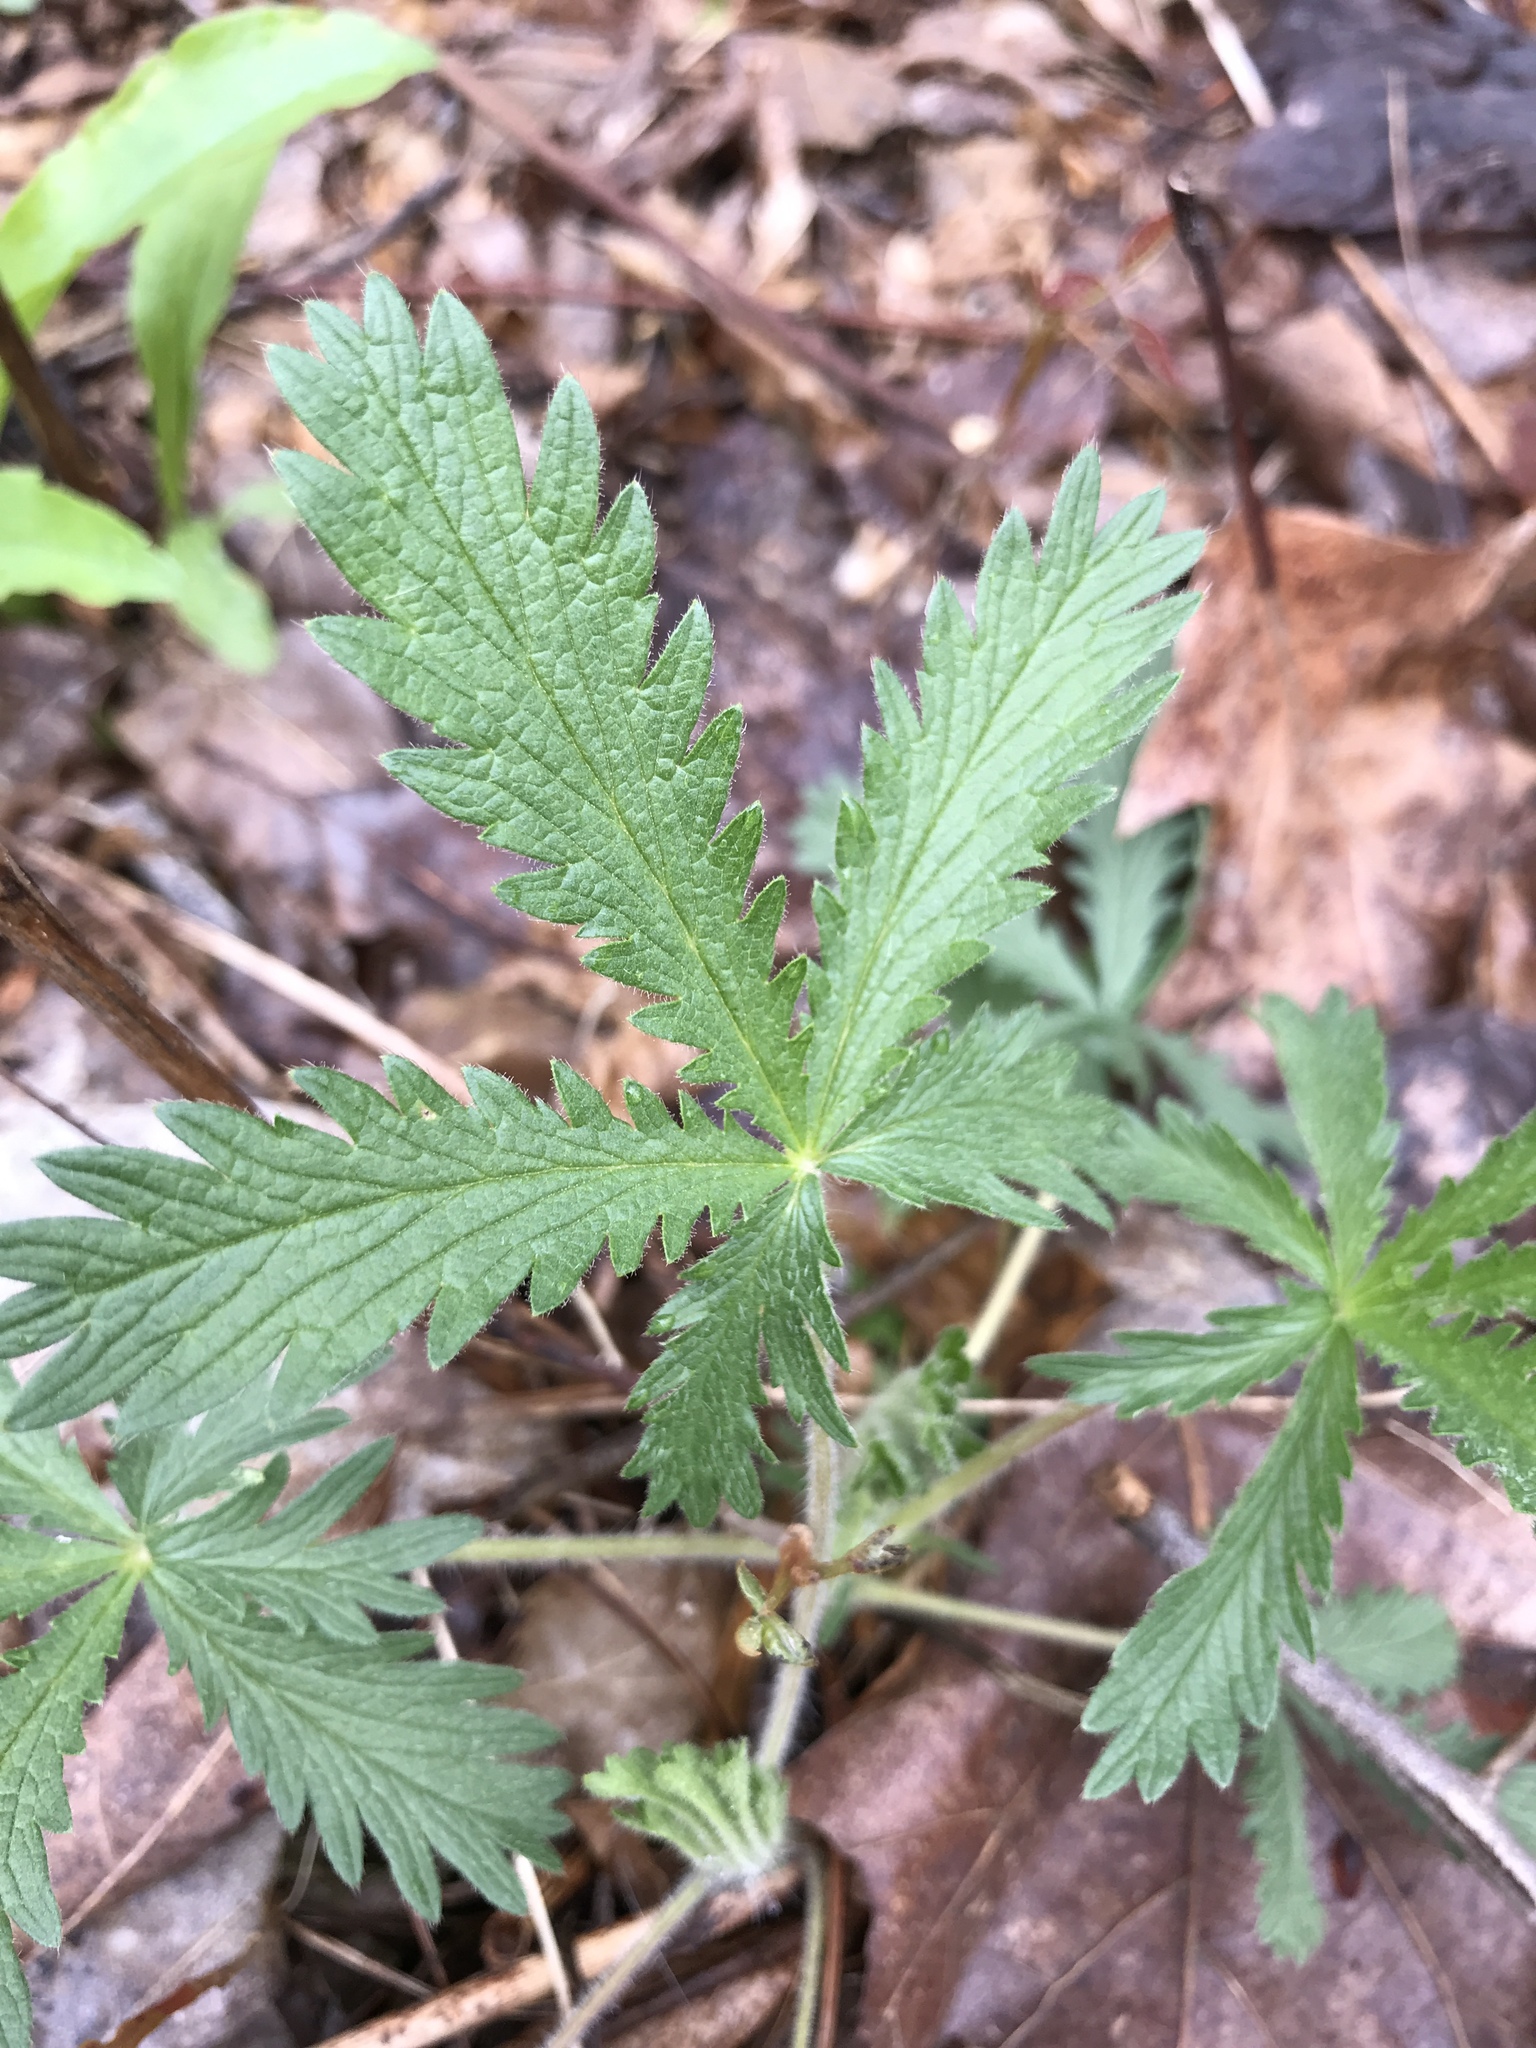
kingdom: Plantae
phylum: Tracheophyta
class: Magnoliopsida
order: Rosales
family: Rosaceae
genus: Potentilla
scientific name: Potentilla recta
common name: Sulphur cinquefoil
